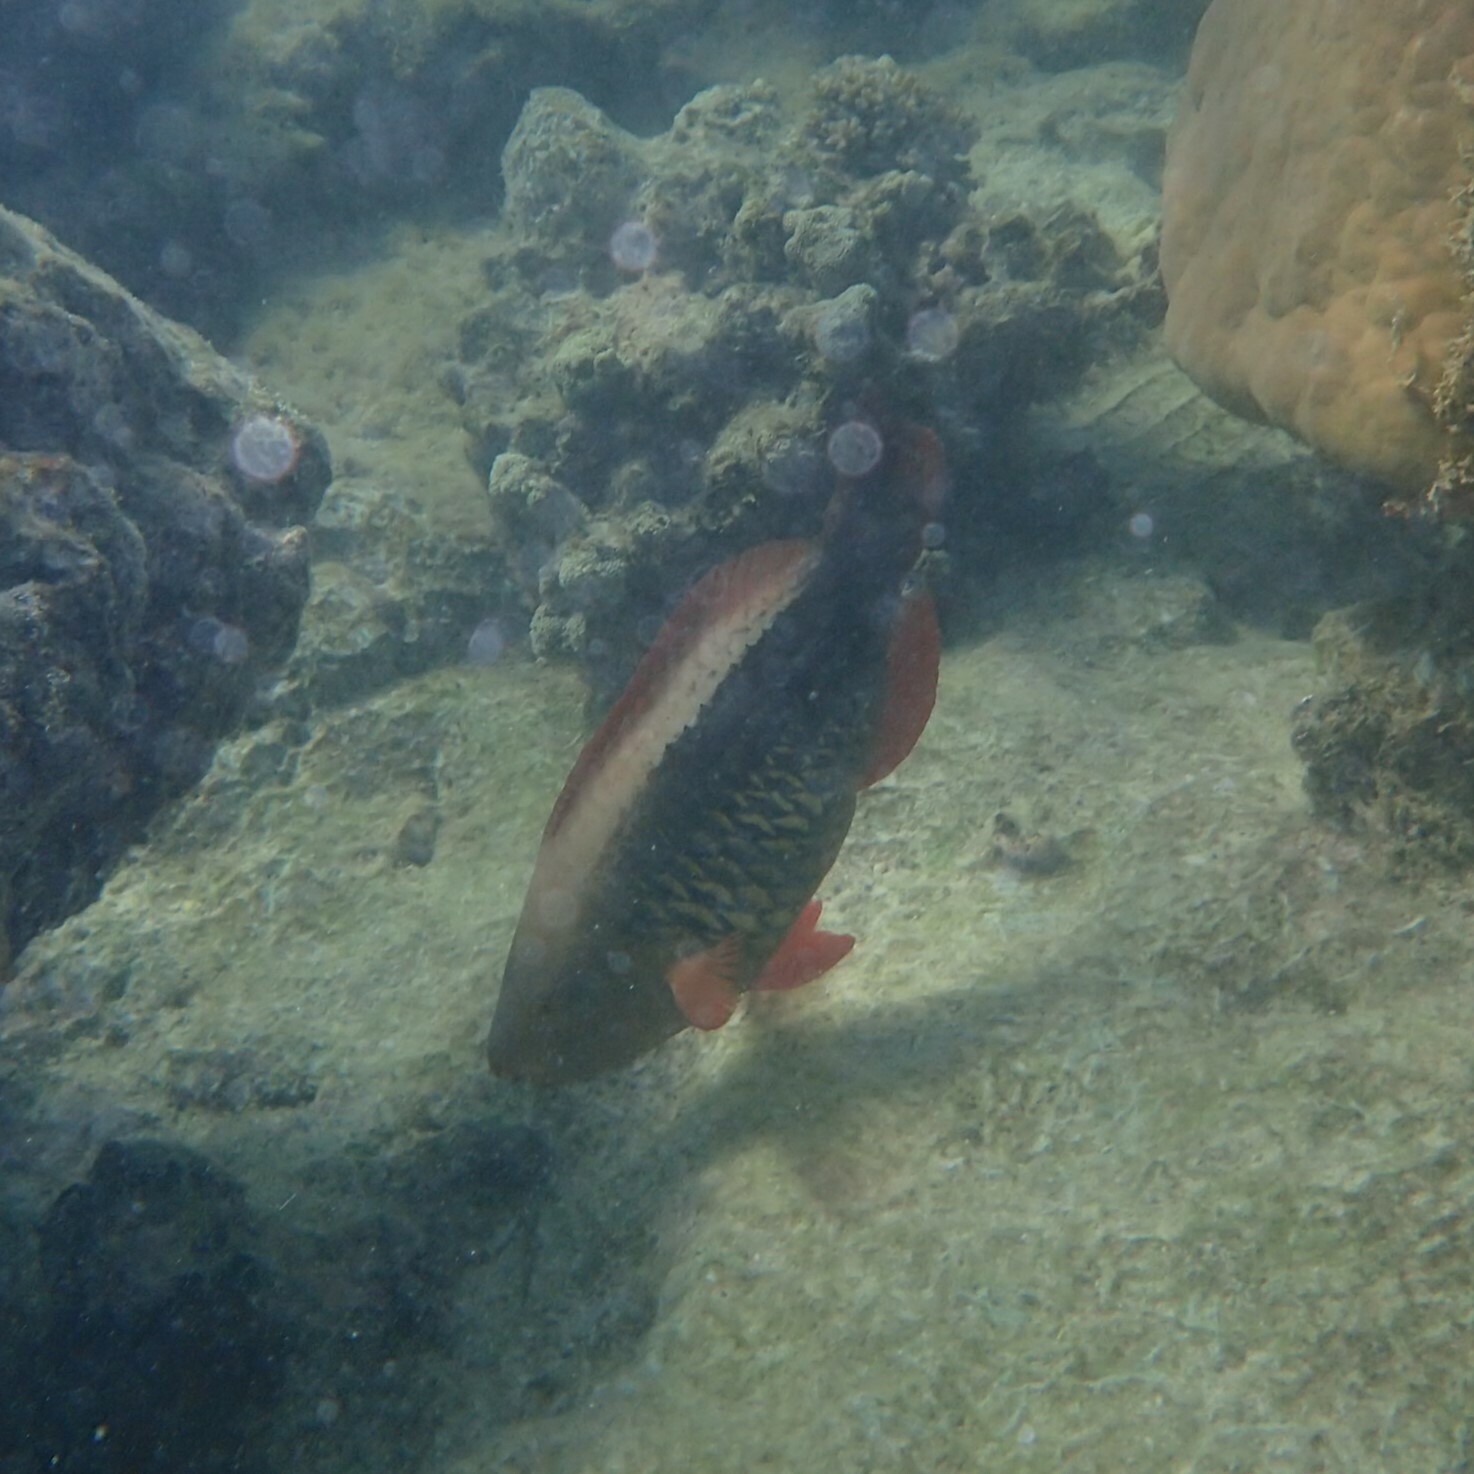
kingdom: Animalia
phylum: Chordata
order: Perciformes
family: Scaridae
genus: Scarus
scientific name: Scarus frenatus
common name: Bridled parrotfish
